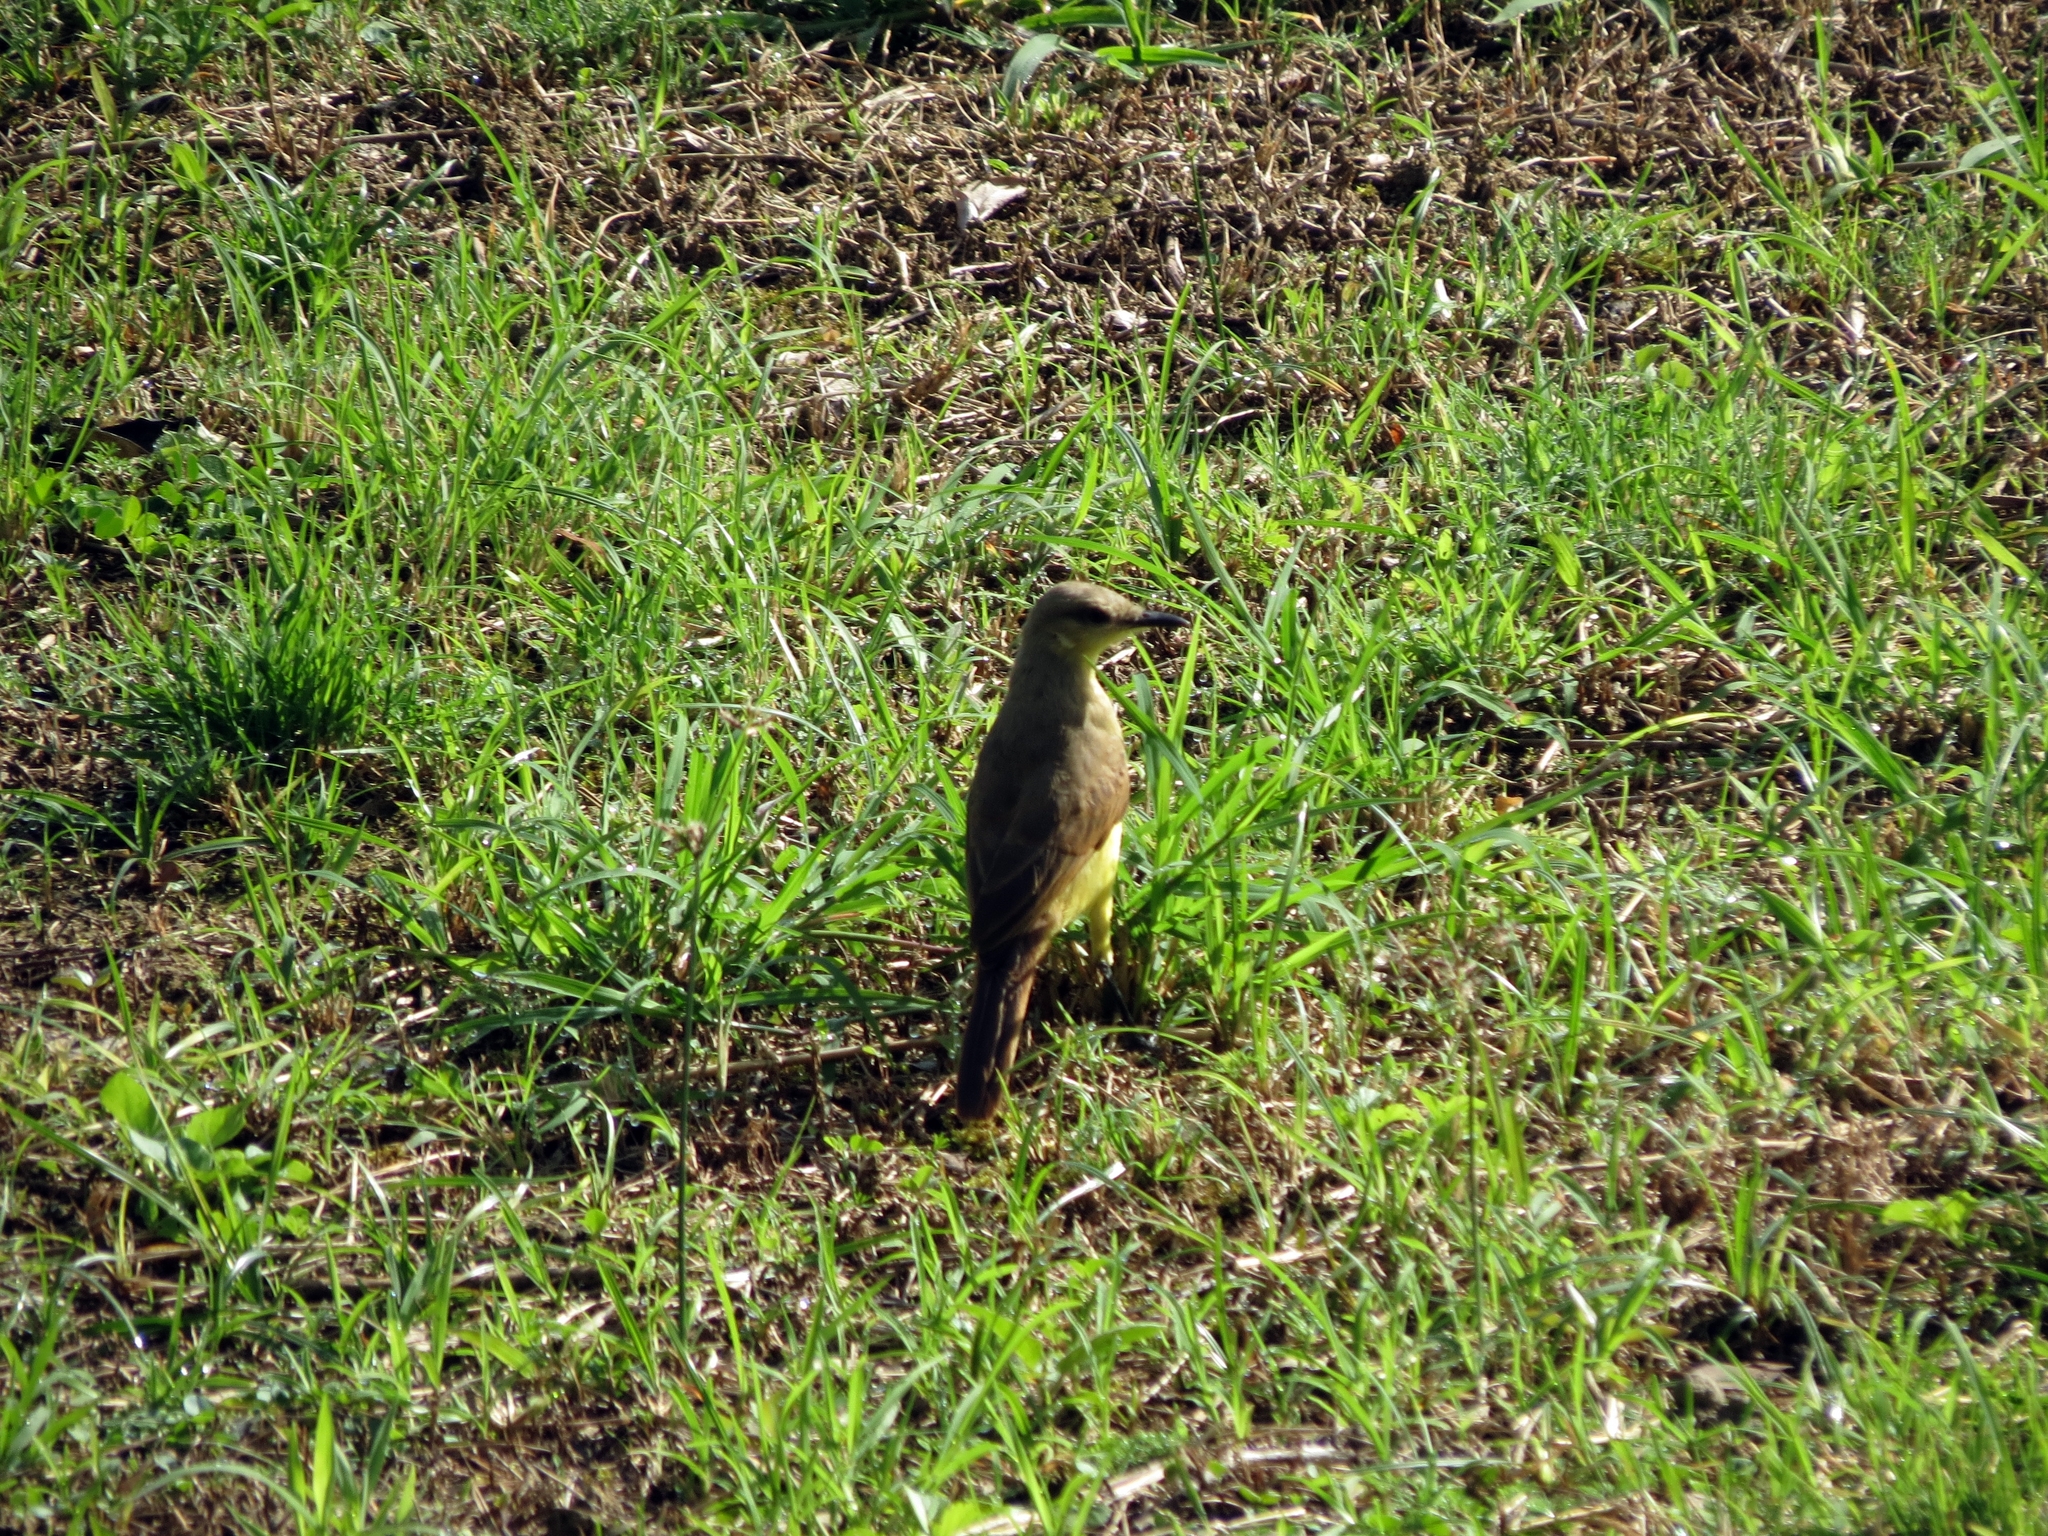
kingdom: Animalia
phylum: Chordata
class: Aves
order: Passeriformes
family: Tyrannidae
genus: Machetornis
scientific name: Machetornis rixosa
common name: Cattle tyrant
